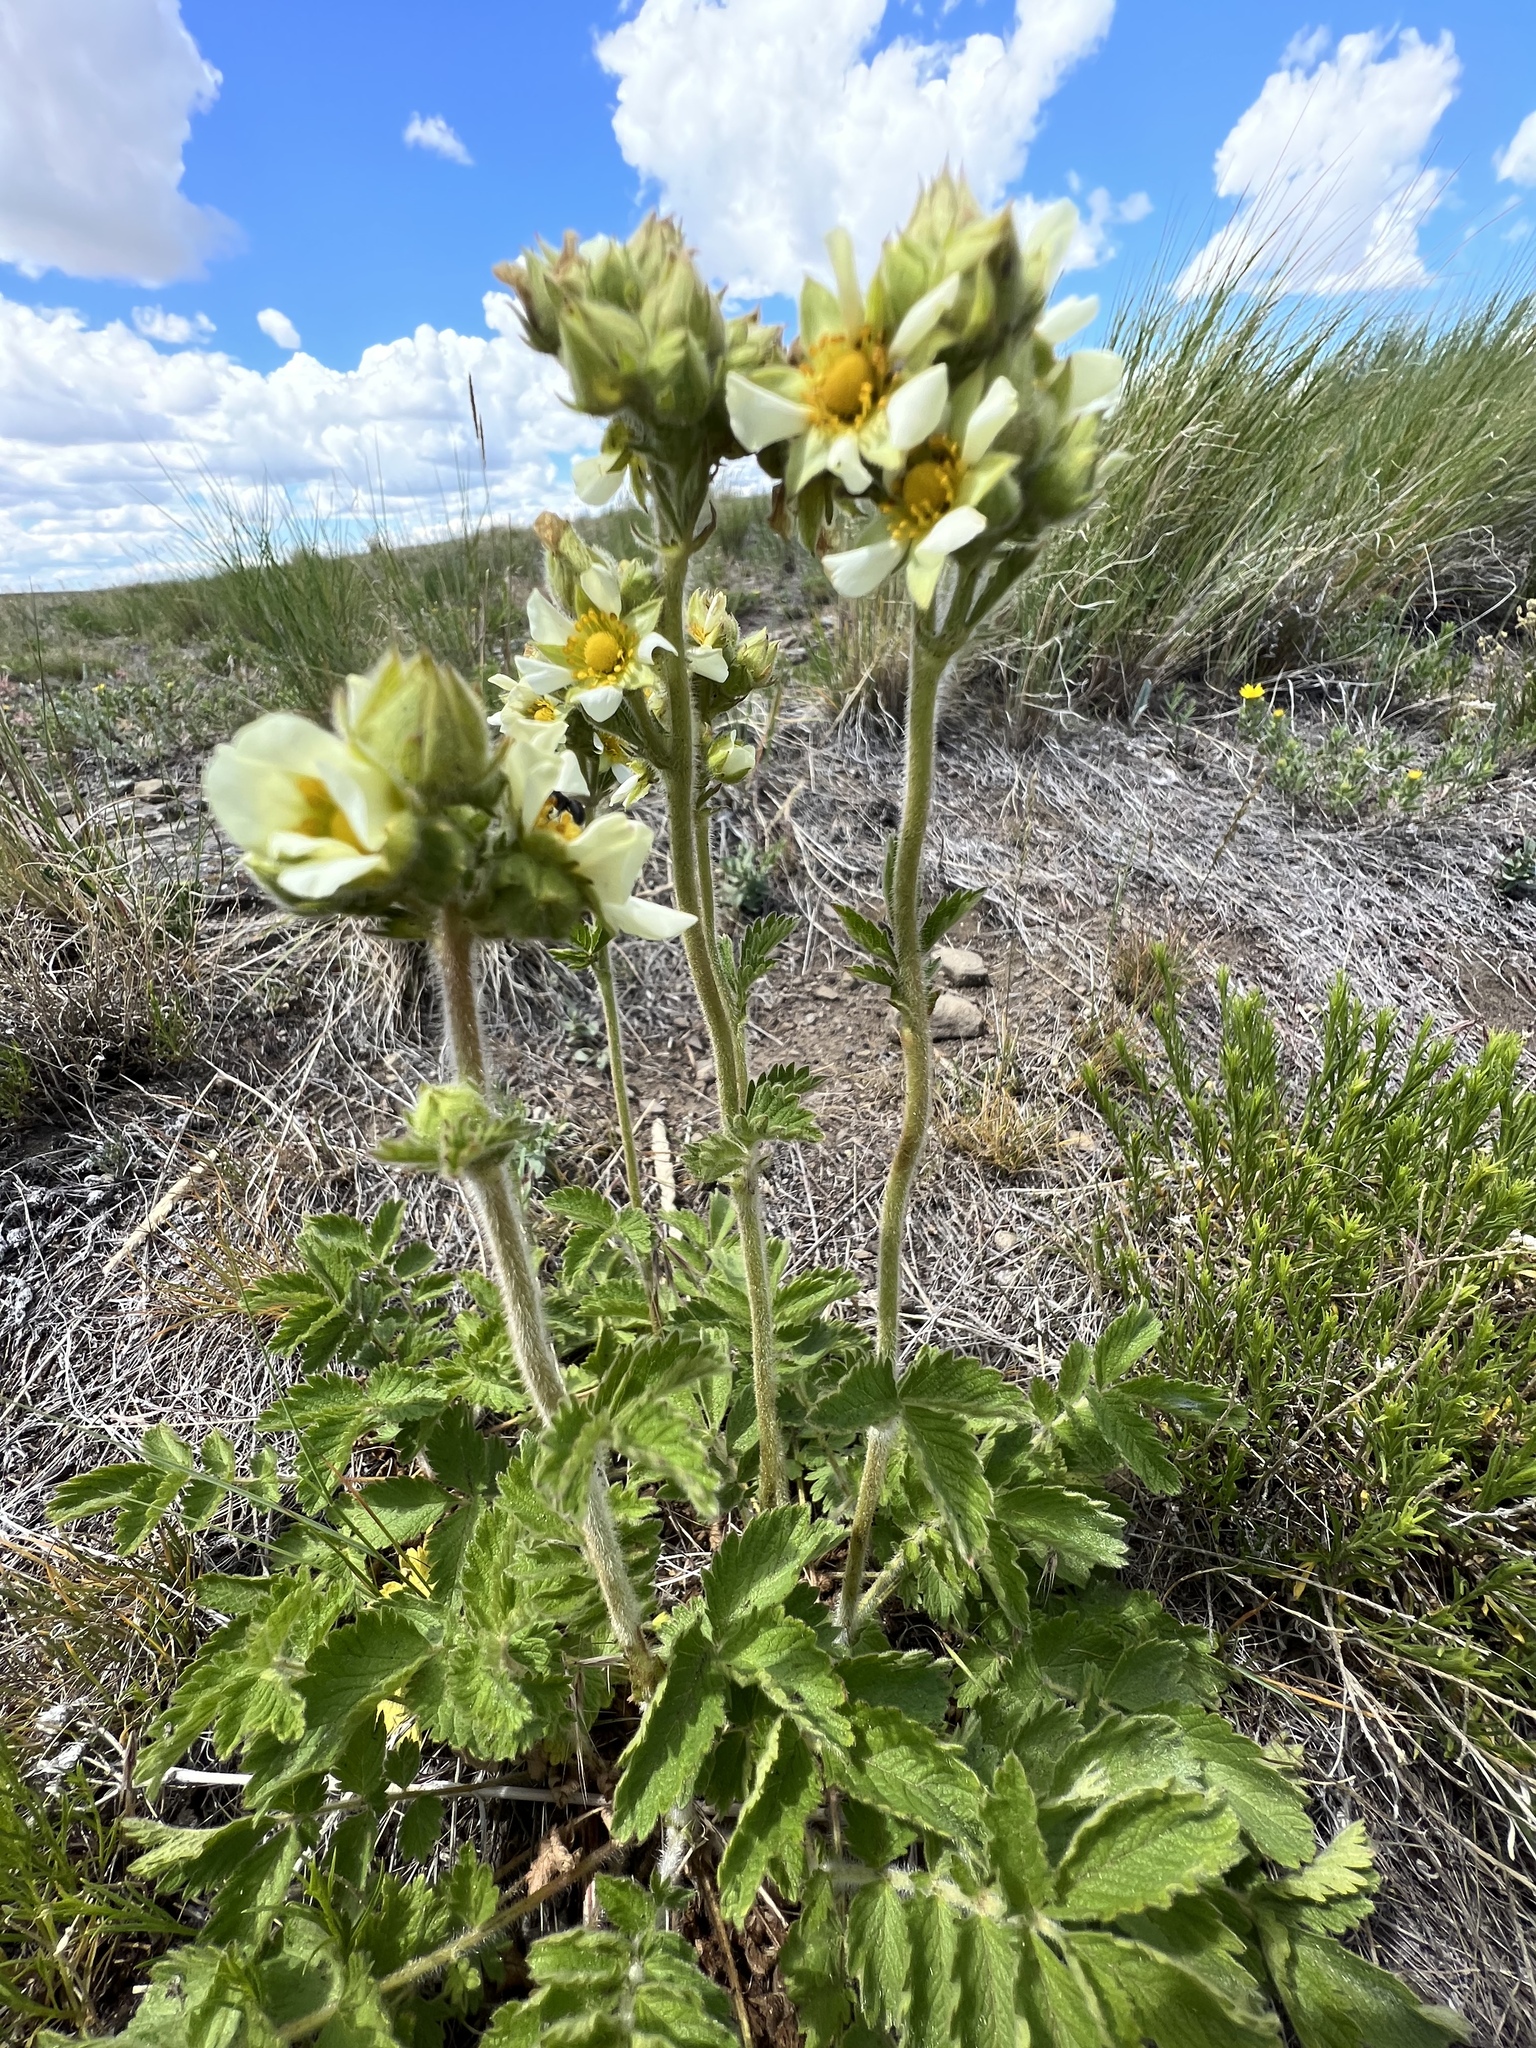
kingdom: Plantae
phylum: Tracheophyta
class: Magnoliopsida
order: Rosales
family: Rosaceae
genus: Drymocallis
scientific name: Drymocallis arguta
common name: Tall cinquefoil
